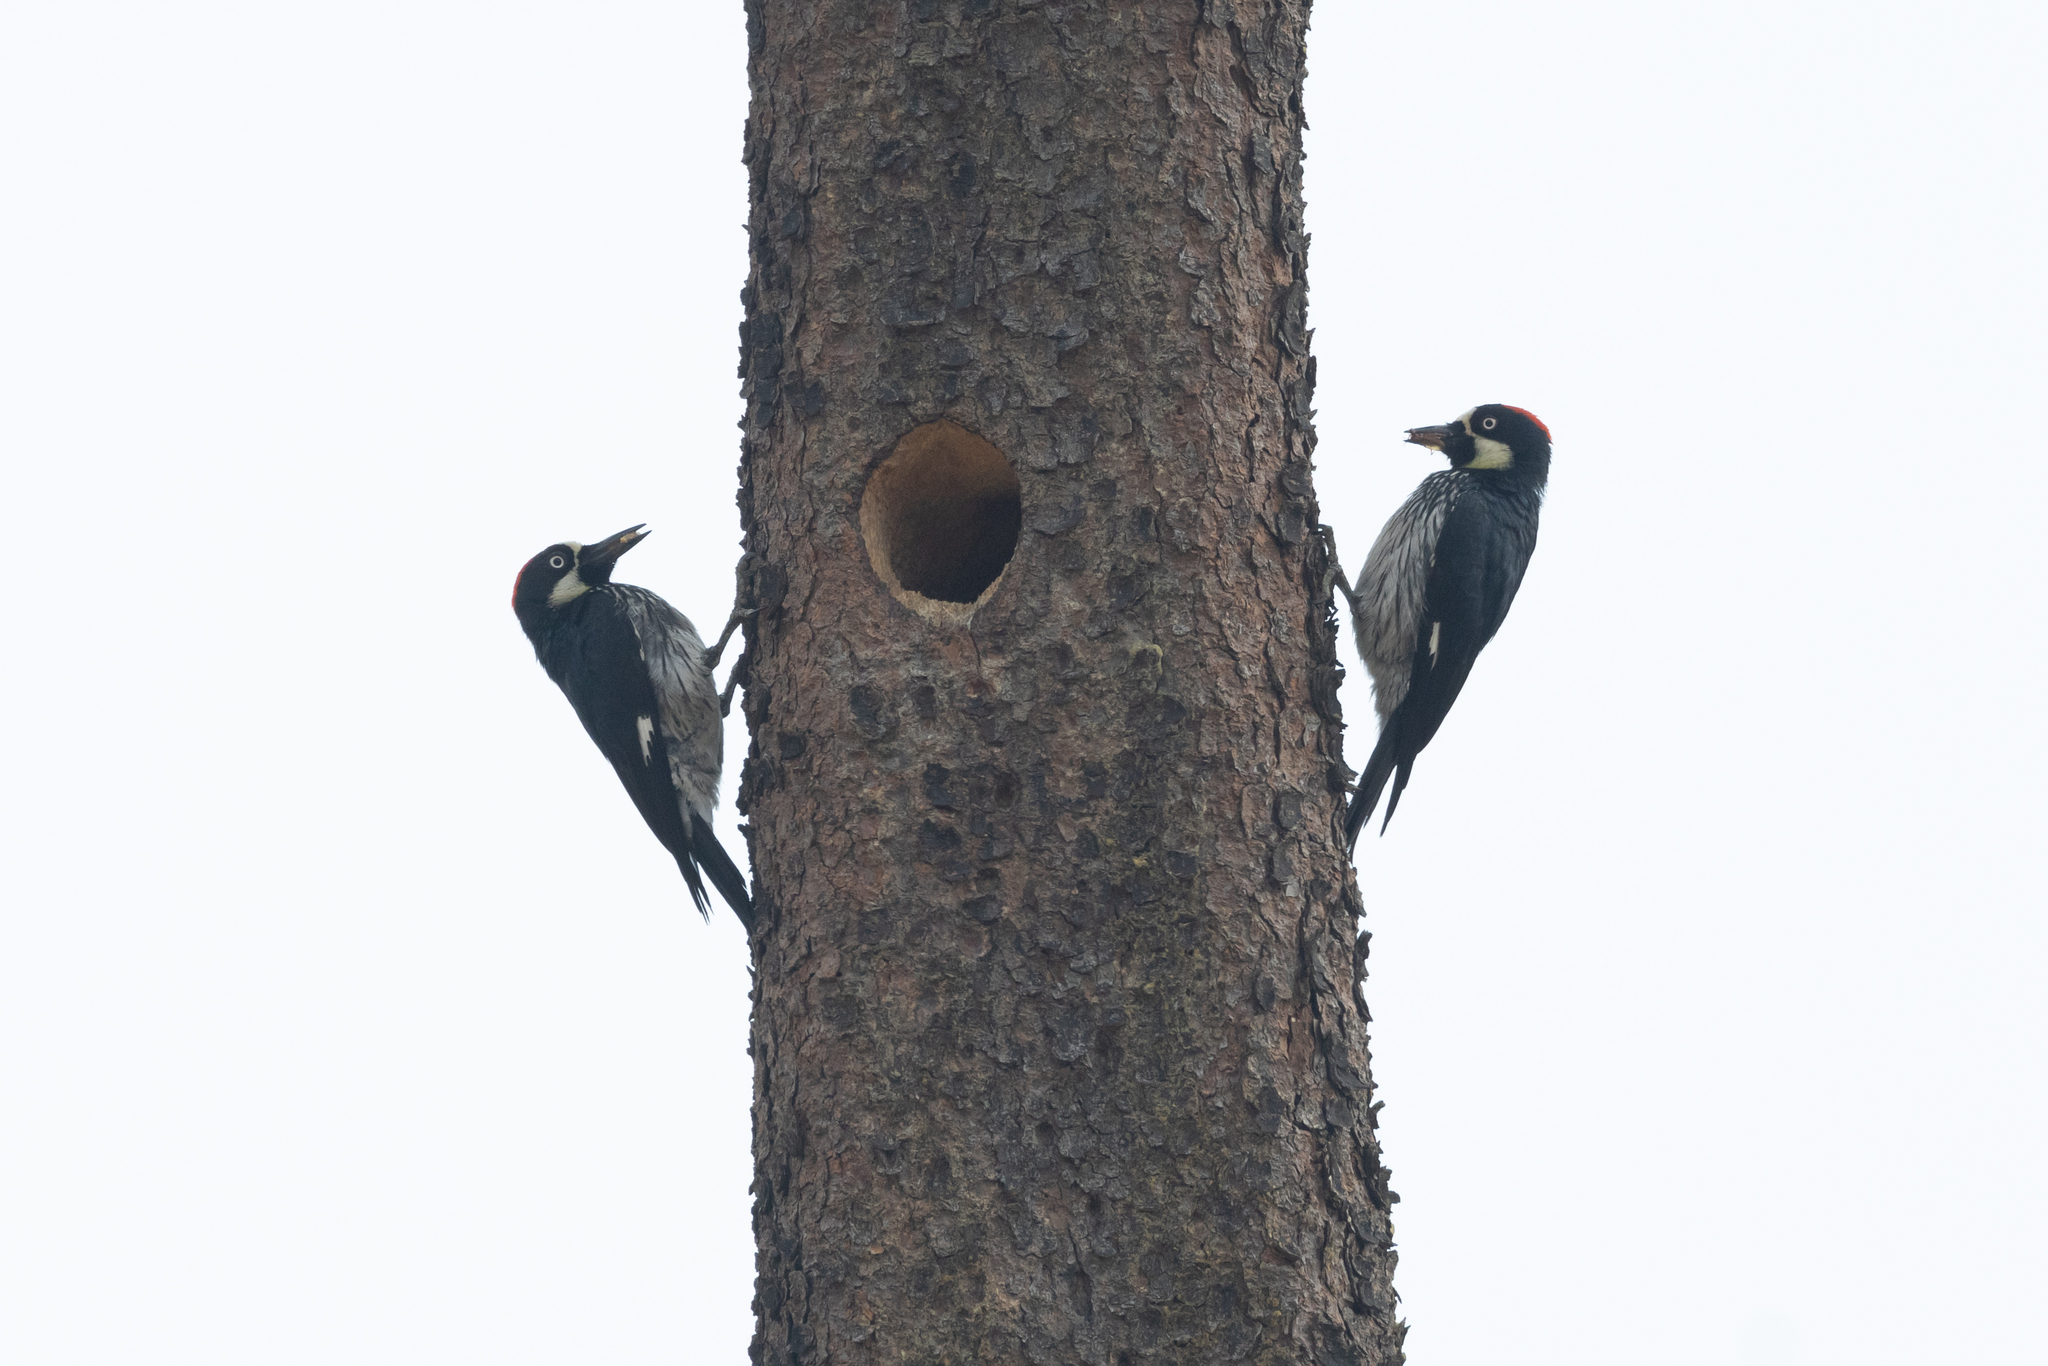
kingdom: Animalia
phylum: Chordata
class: Aves
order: Piciformes
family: Picidae
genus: Melanerpes
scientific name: Melanerpes formicivorus
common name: Acorn woodpecker
